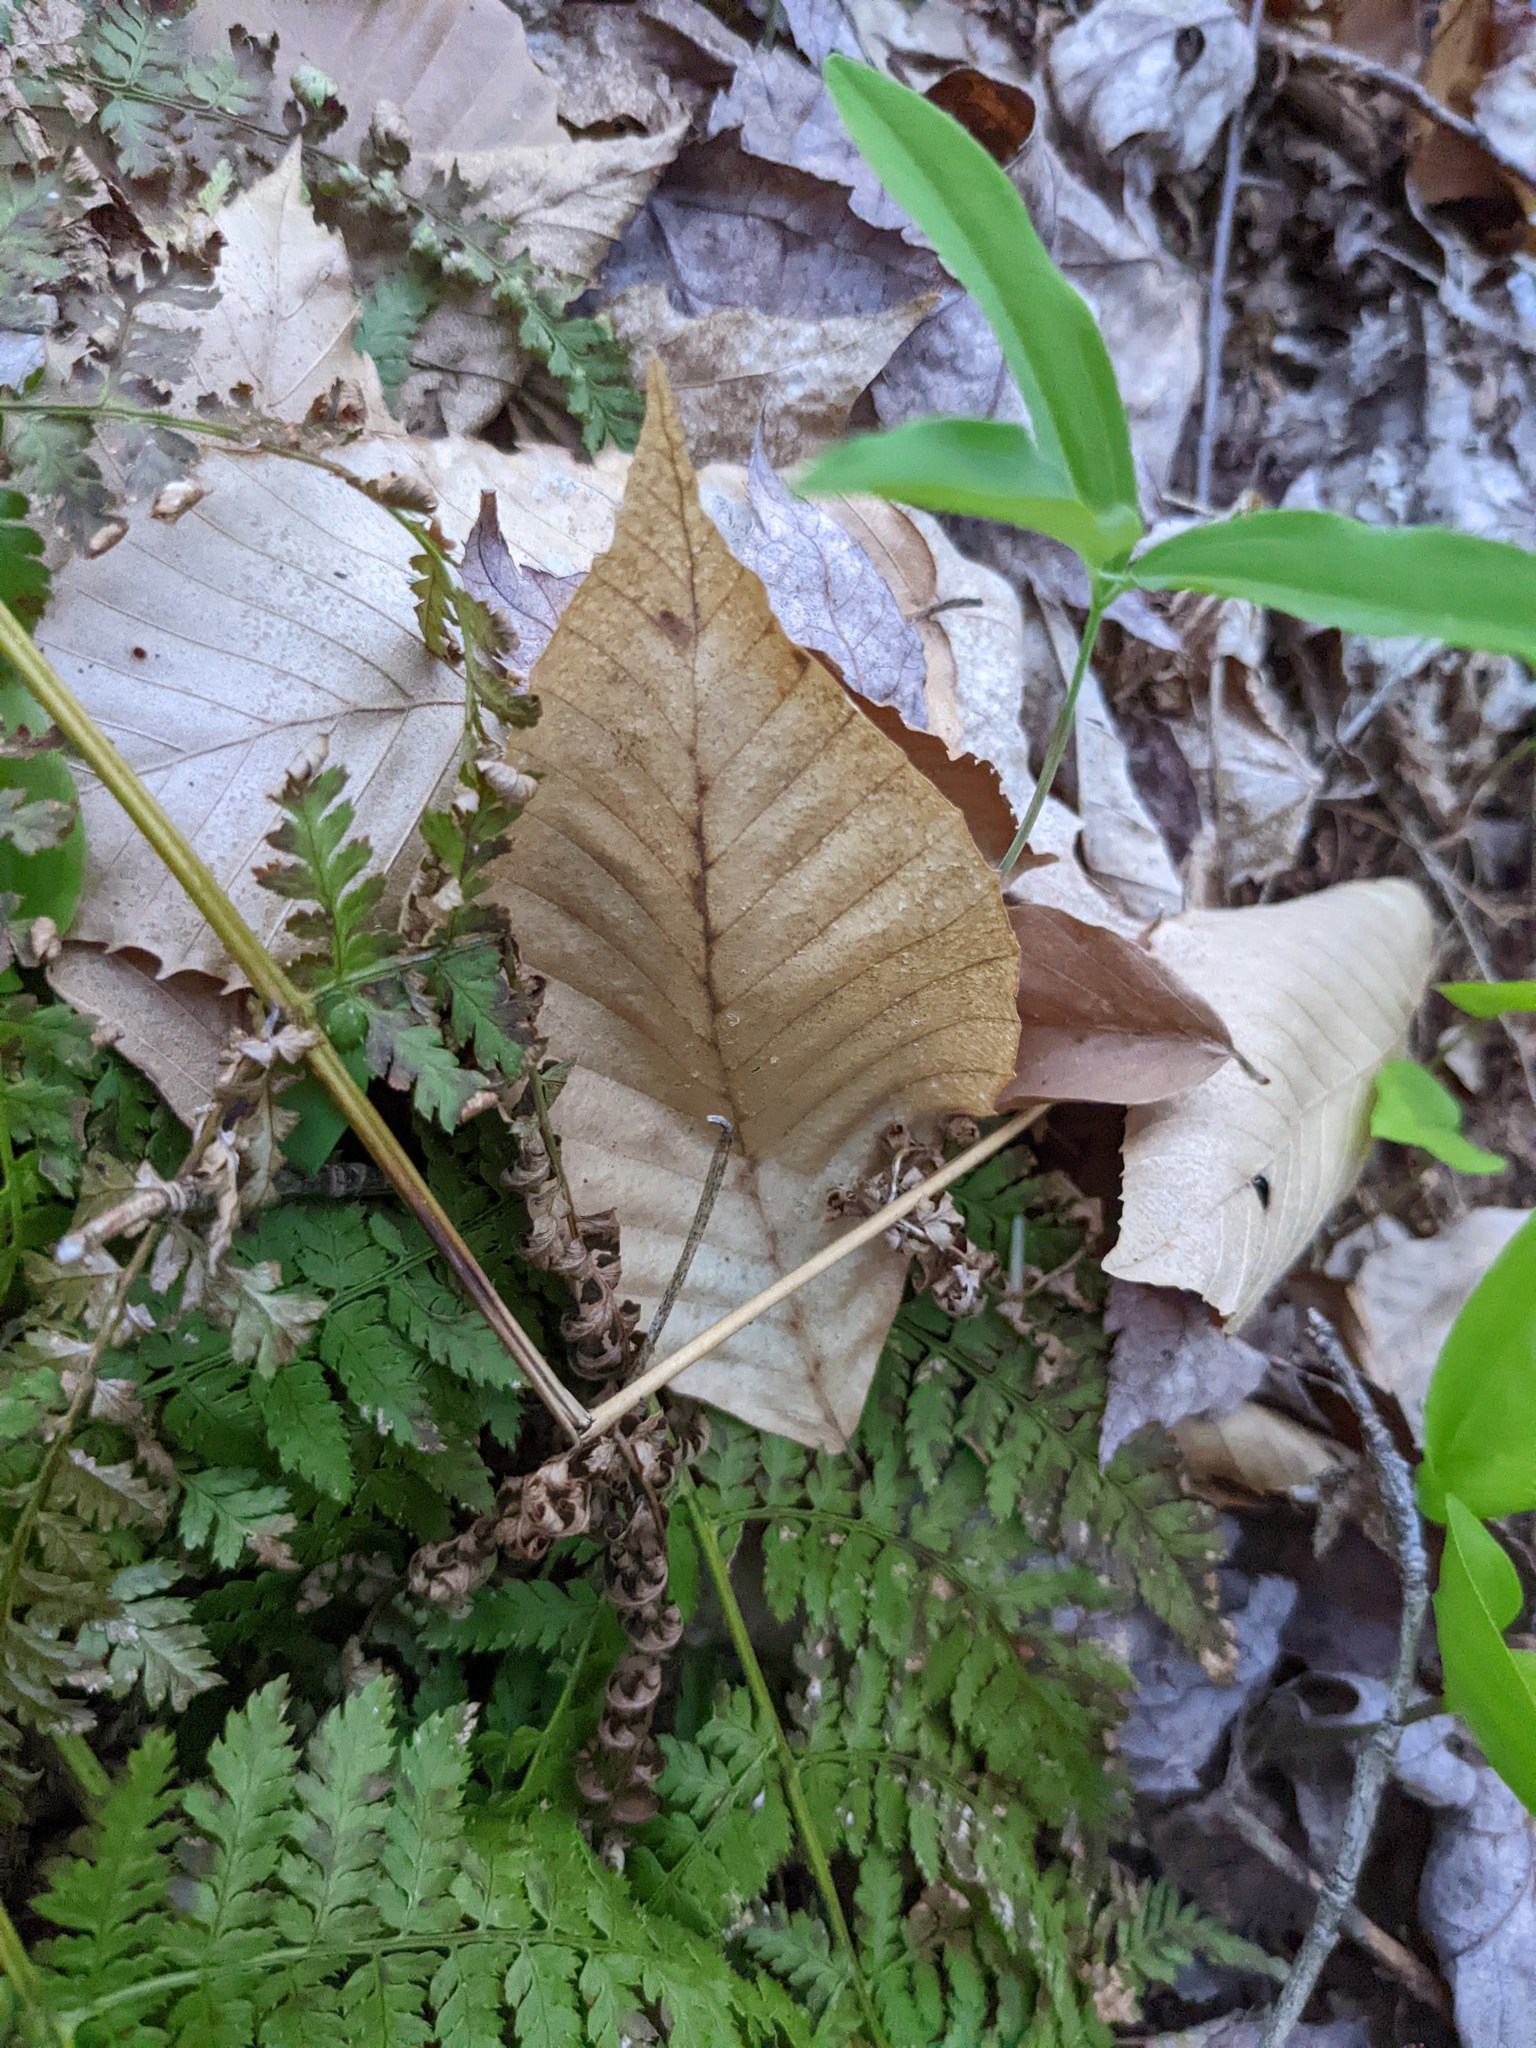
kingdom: Plantae
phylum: Tracheophyta
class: Magnoliopsida
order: Fagales
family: Fagaceae
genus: Fagus
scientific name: Fagus grandifolia
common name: American beech
